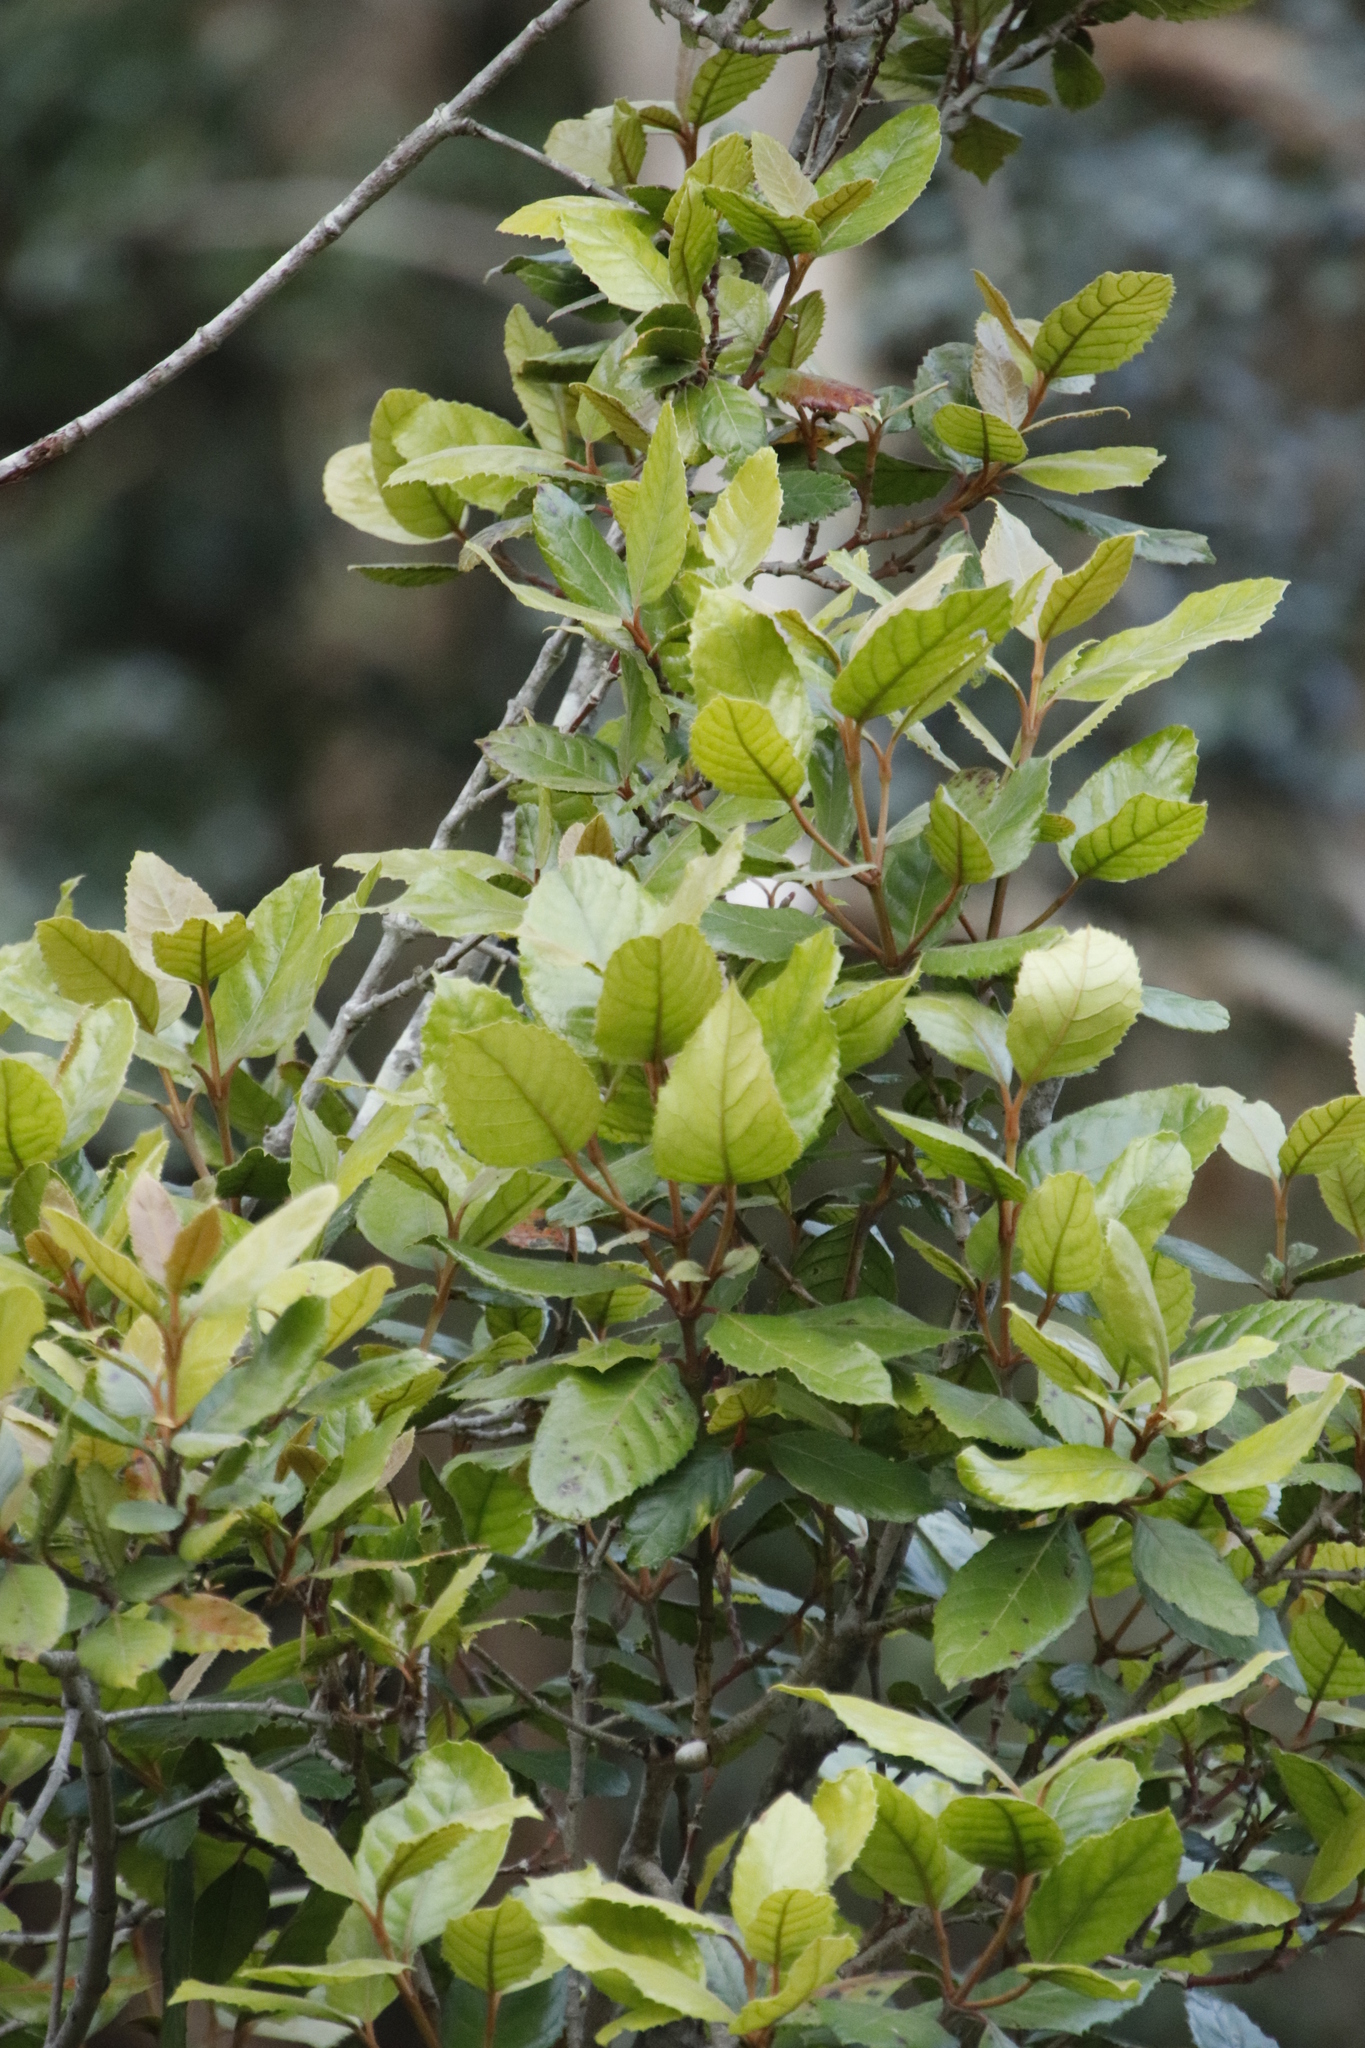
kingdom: Plantae
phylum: Tracheophyta
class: Magnoliopsida
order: Cornales
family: Curtisiaceae
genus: Curtisia
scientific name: Curtisia dentata
